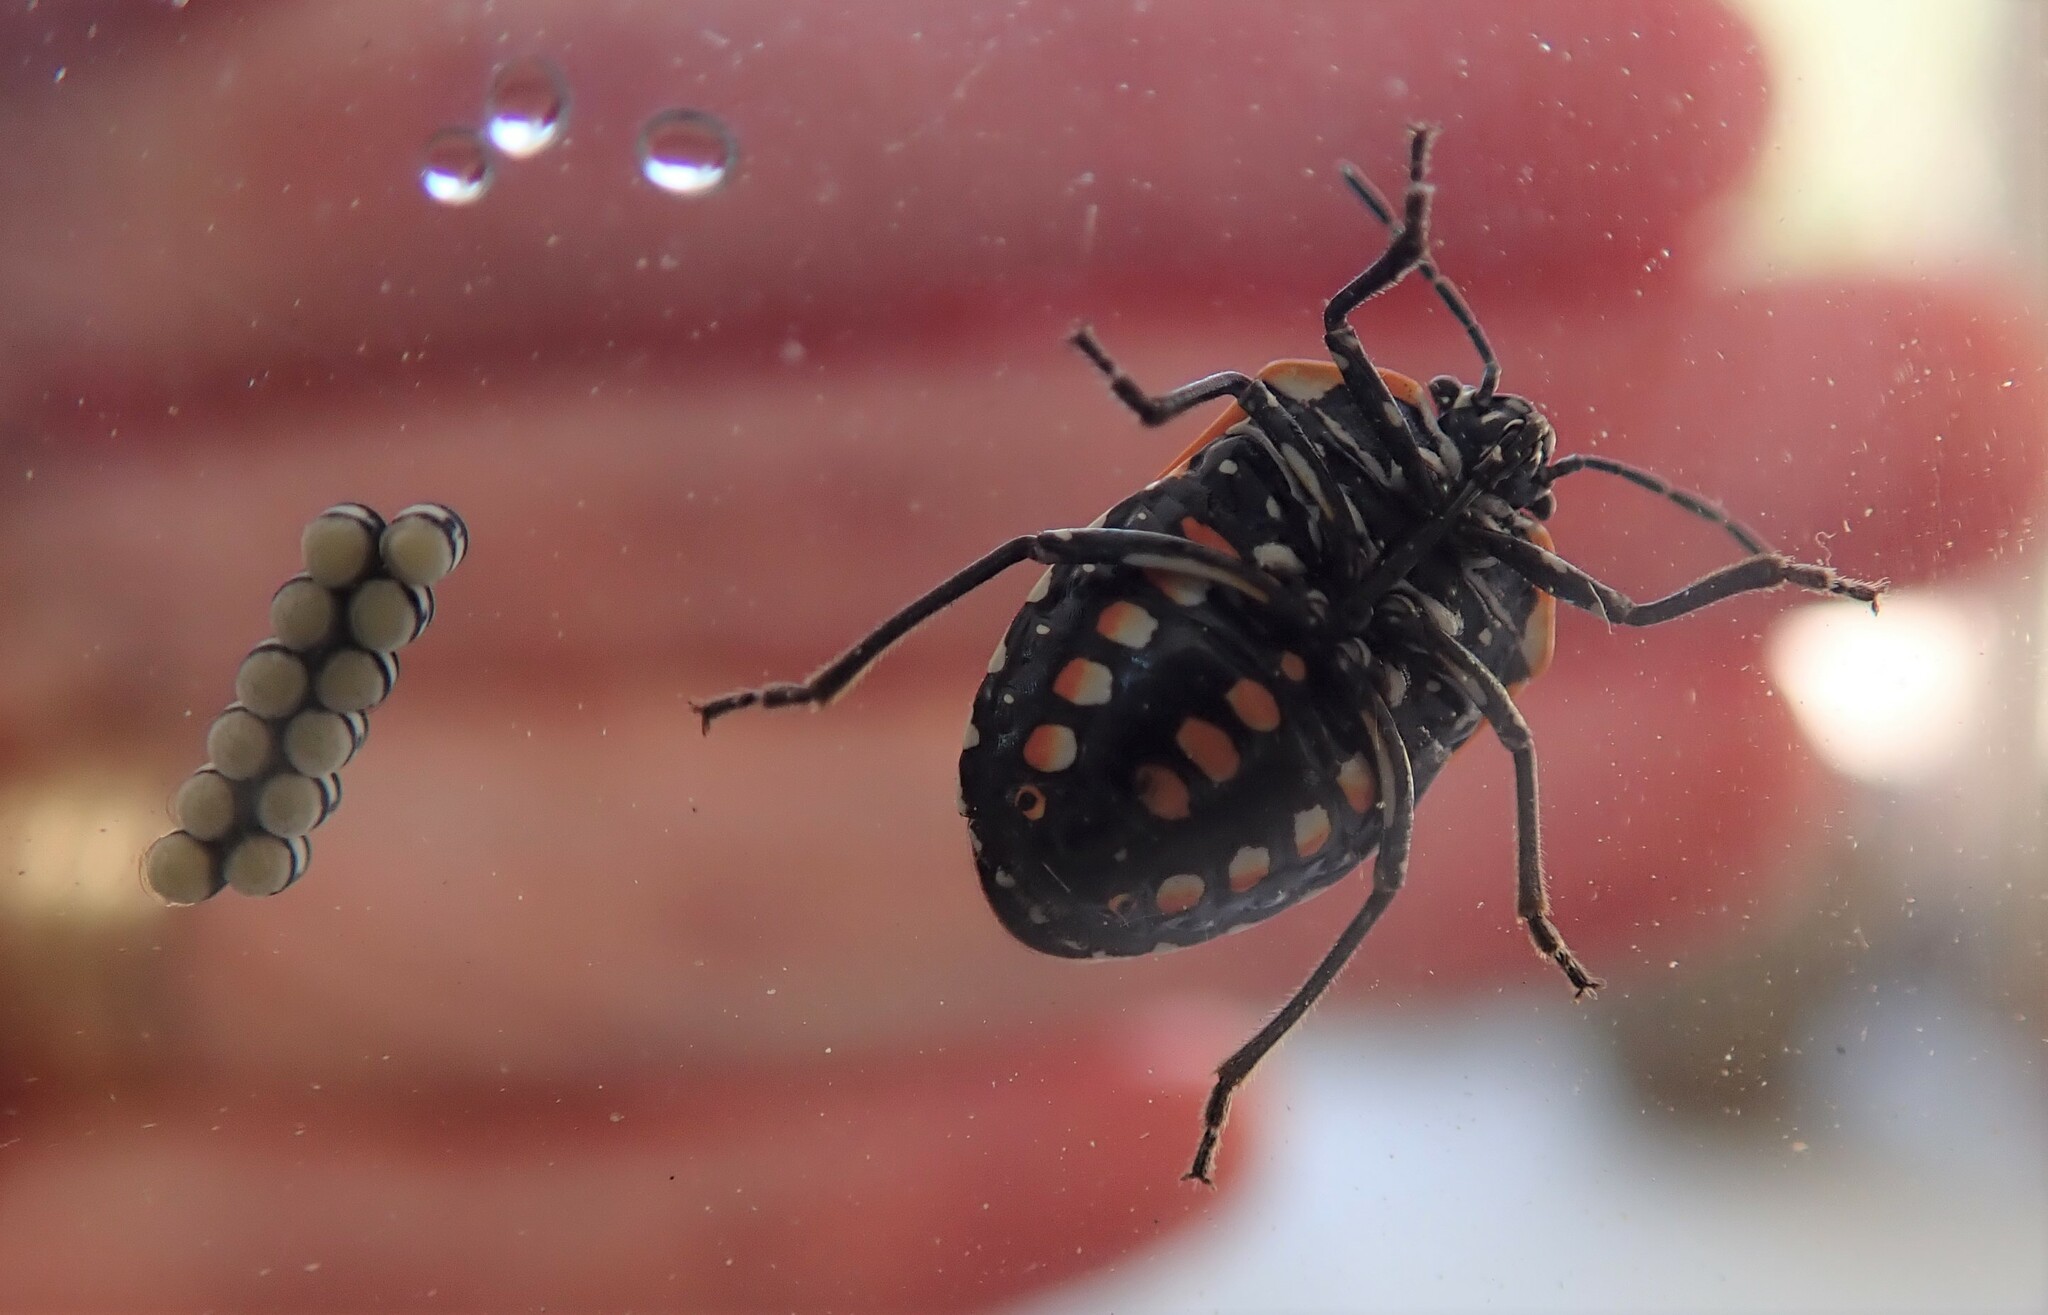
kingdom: Animalia
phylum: Arthropoda
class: Insecta
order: Hemiptera
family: Pentatomidae
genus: Murgantia
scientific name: Murgantia histrionica
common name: Harlequin bug
